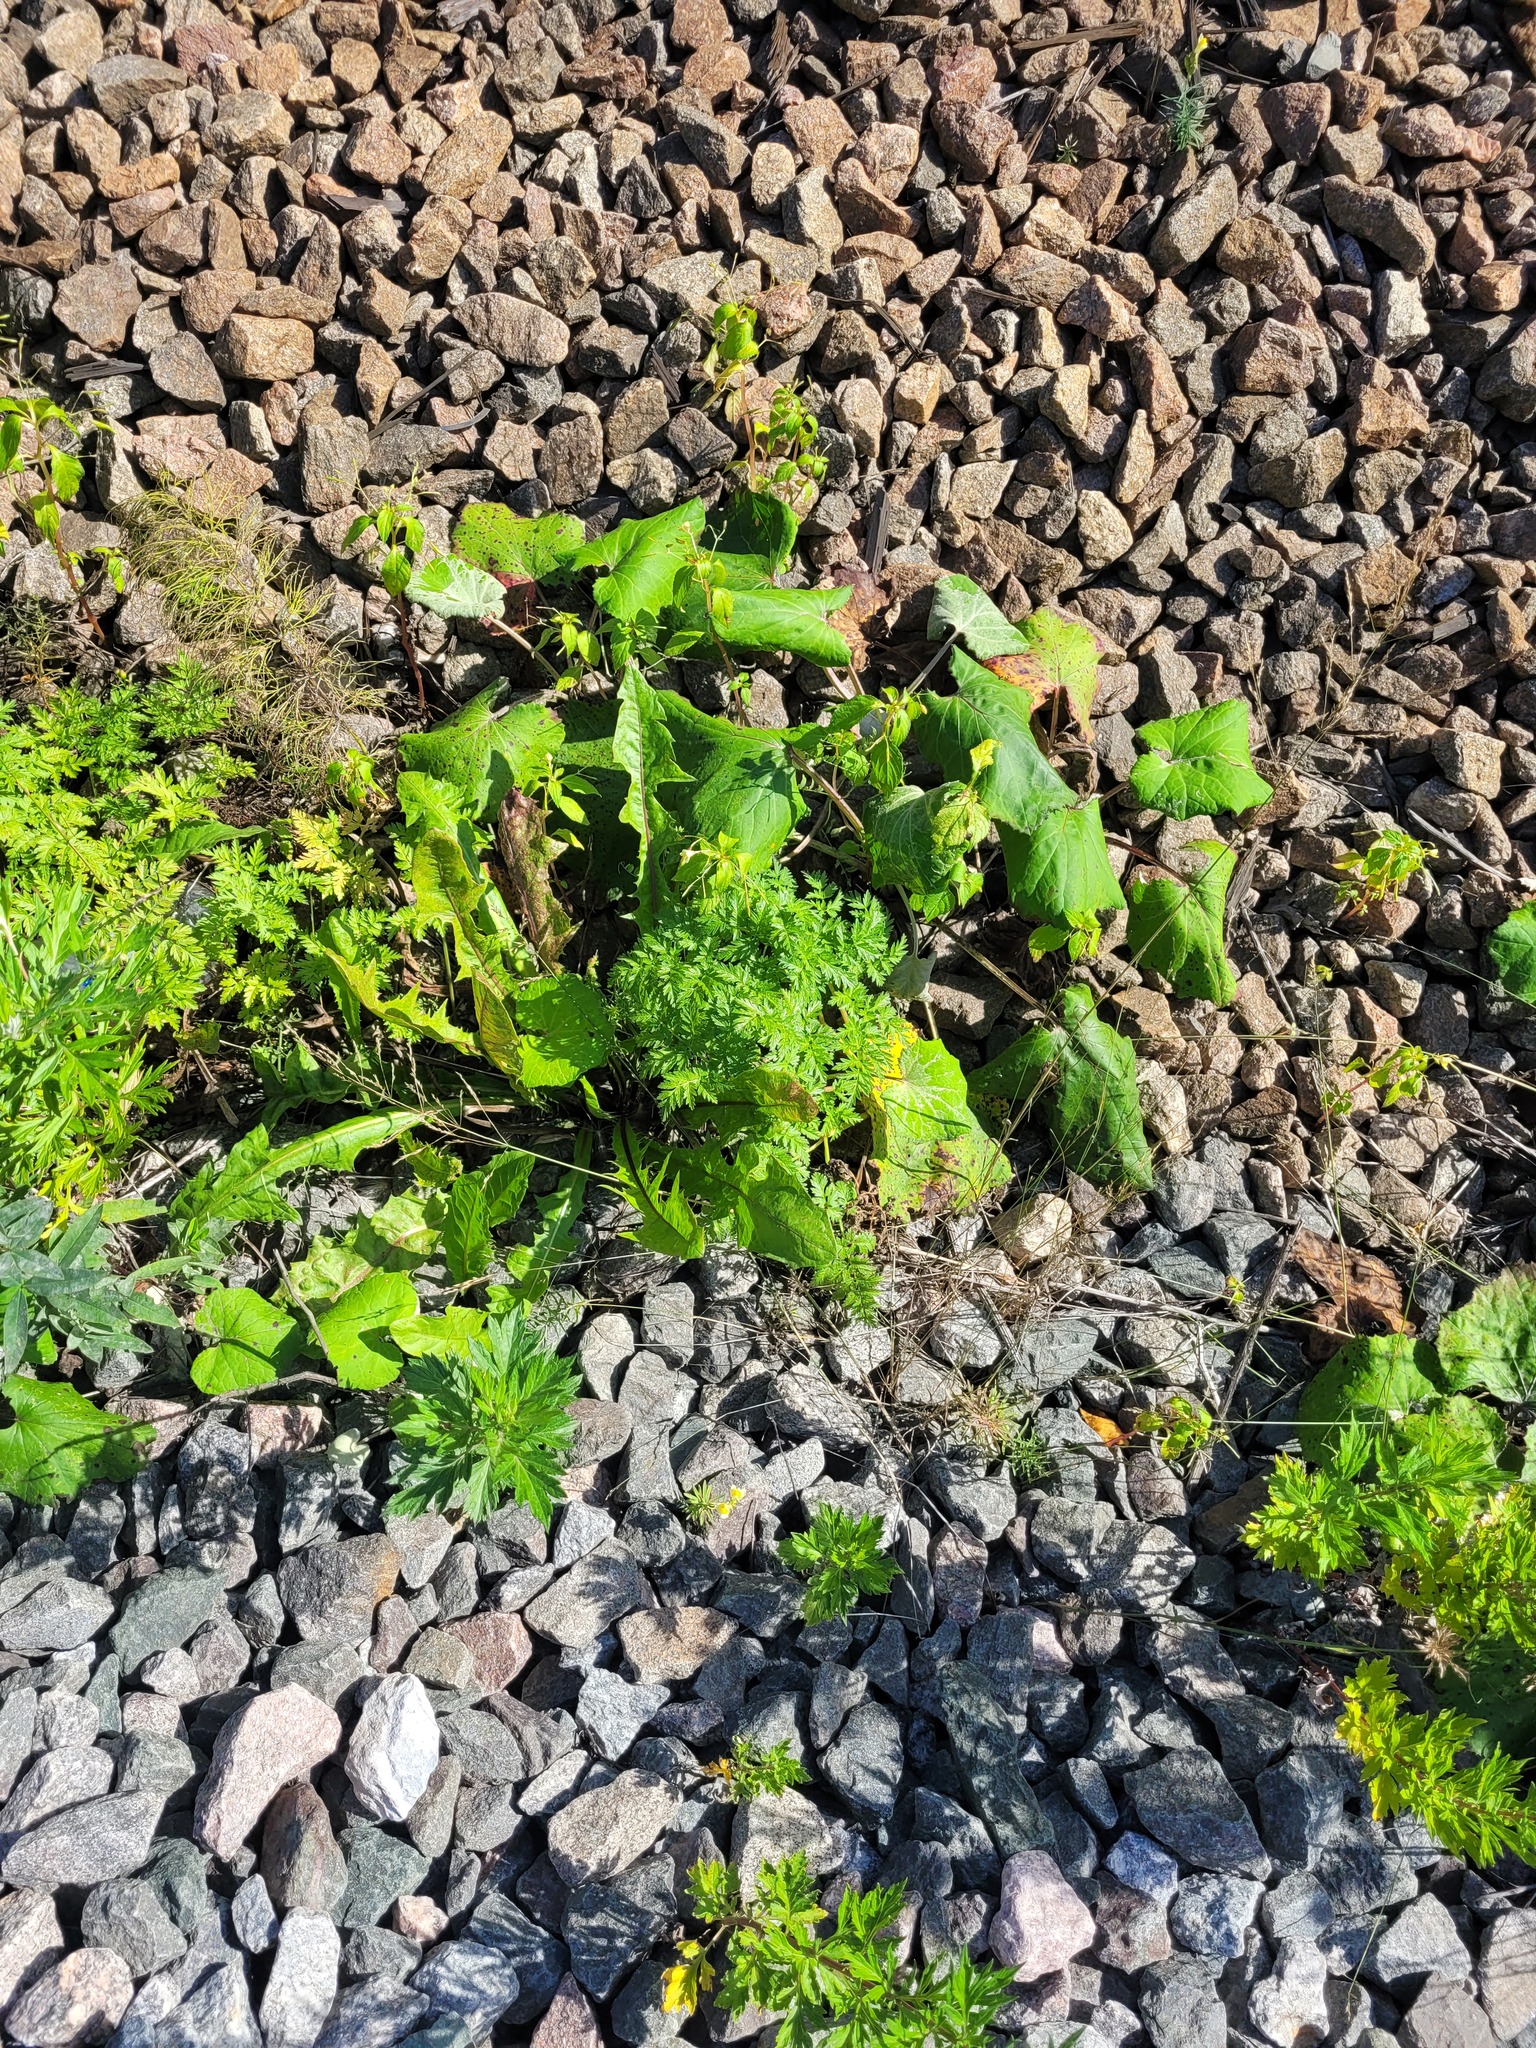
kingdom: Plantae
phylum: Tracheophyta
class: Magnoliopsida
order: Apiales
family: Apiaceae
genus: Anthriscus
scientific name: Anthriscus sylvestris
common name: Cow parsley
